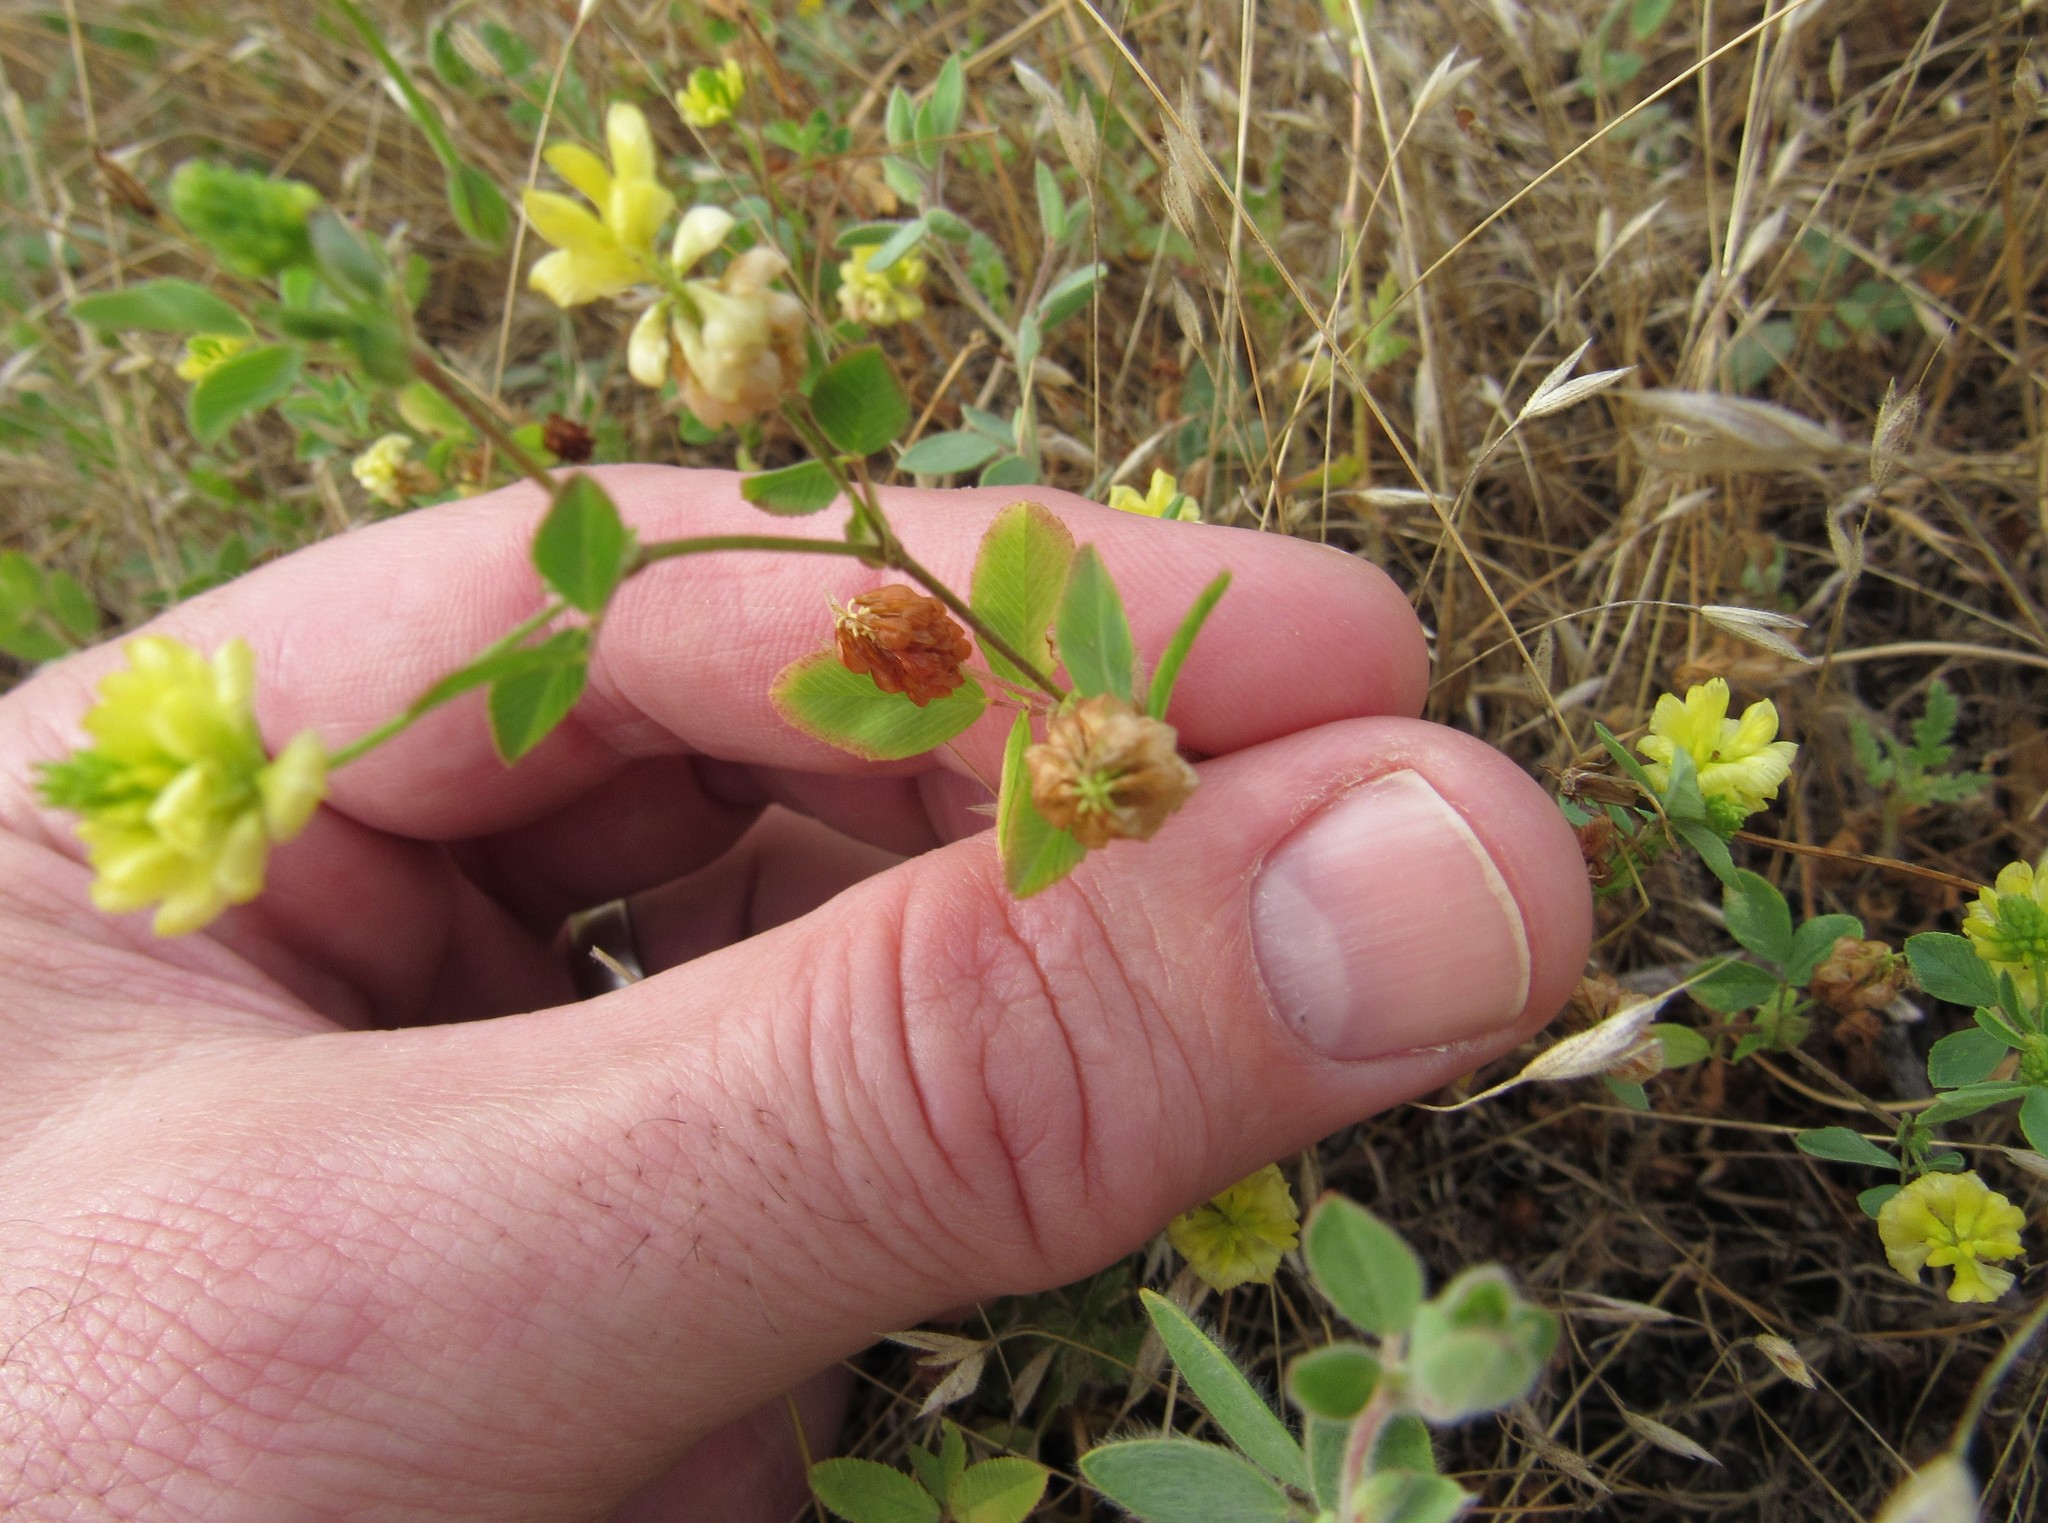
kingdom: Plantae
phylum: Tracheophyta
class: Magnoliopsida
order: Fabales
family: Fabaceae
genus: Trifolium
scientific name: Trifolium campestre
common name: Field clover
